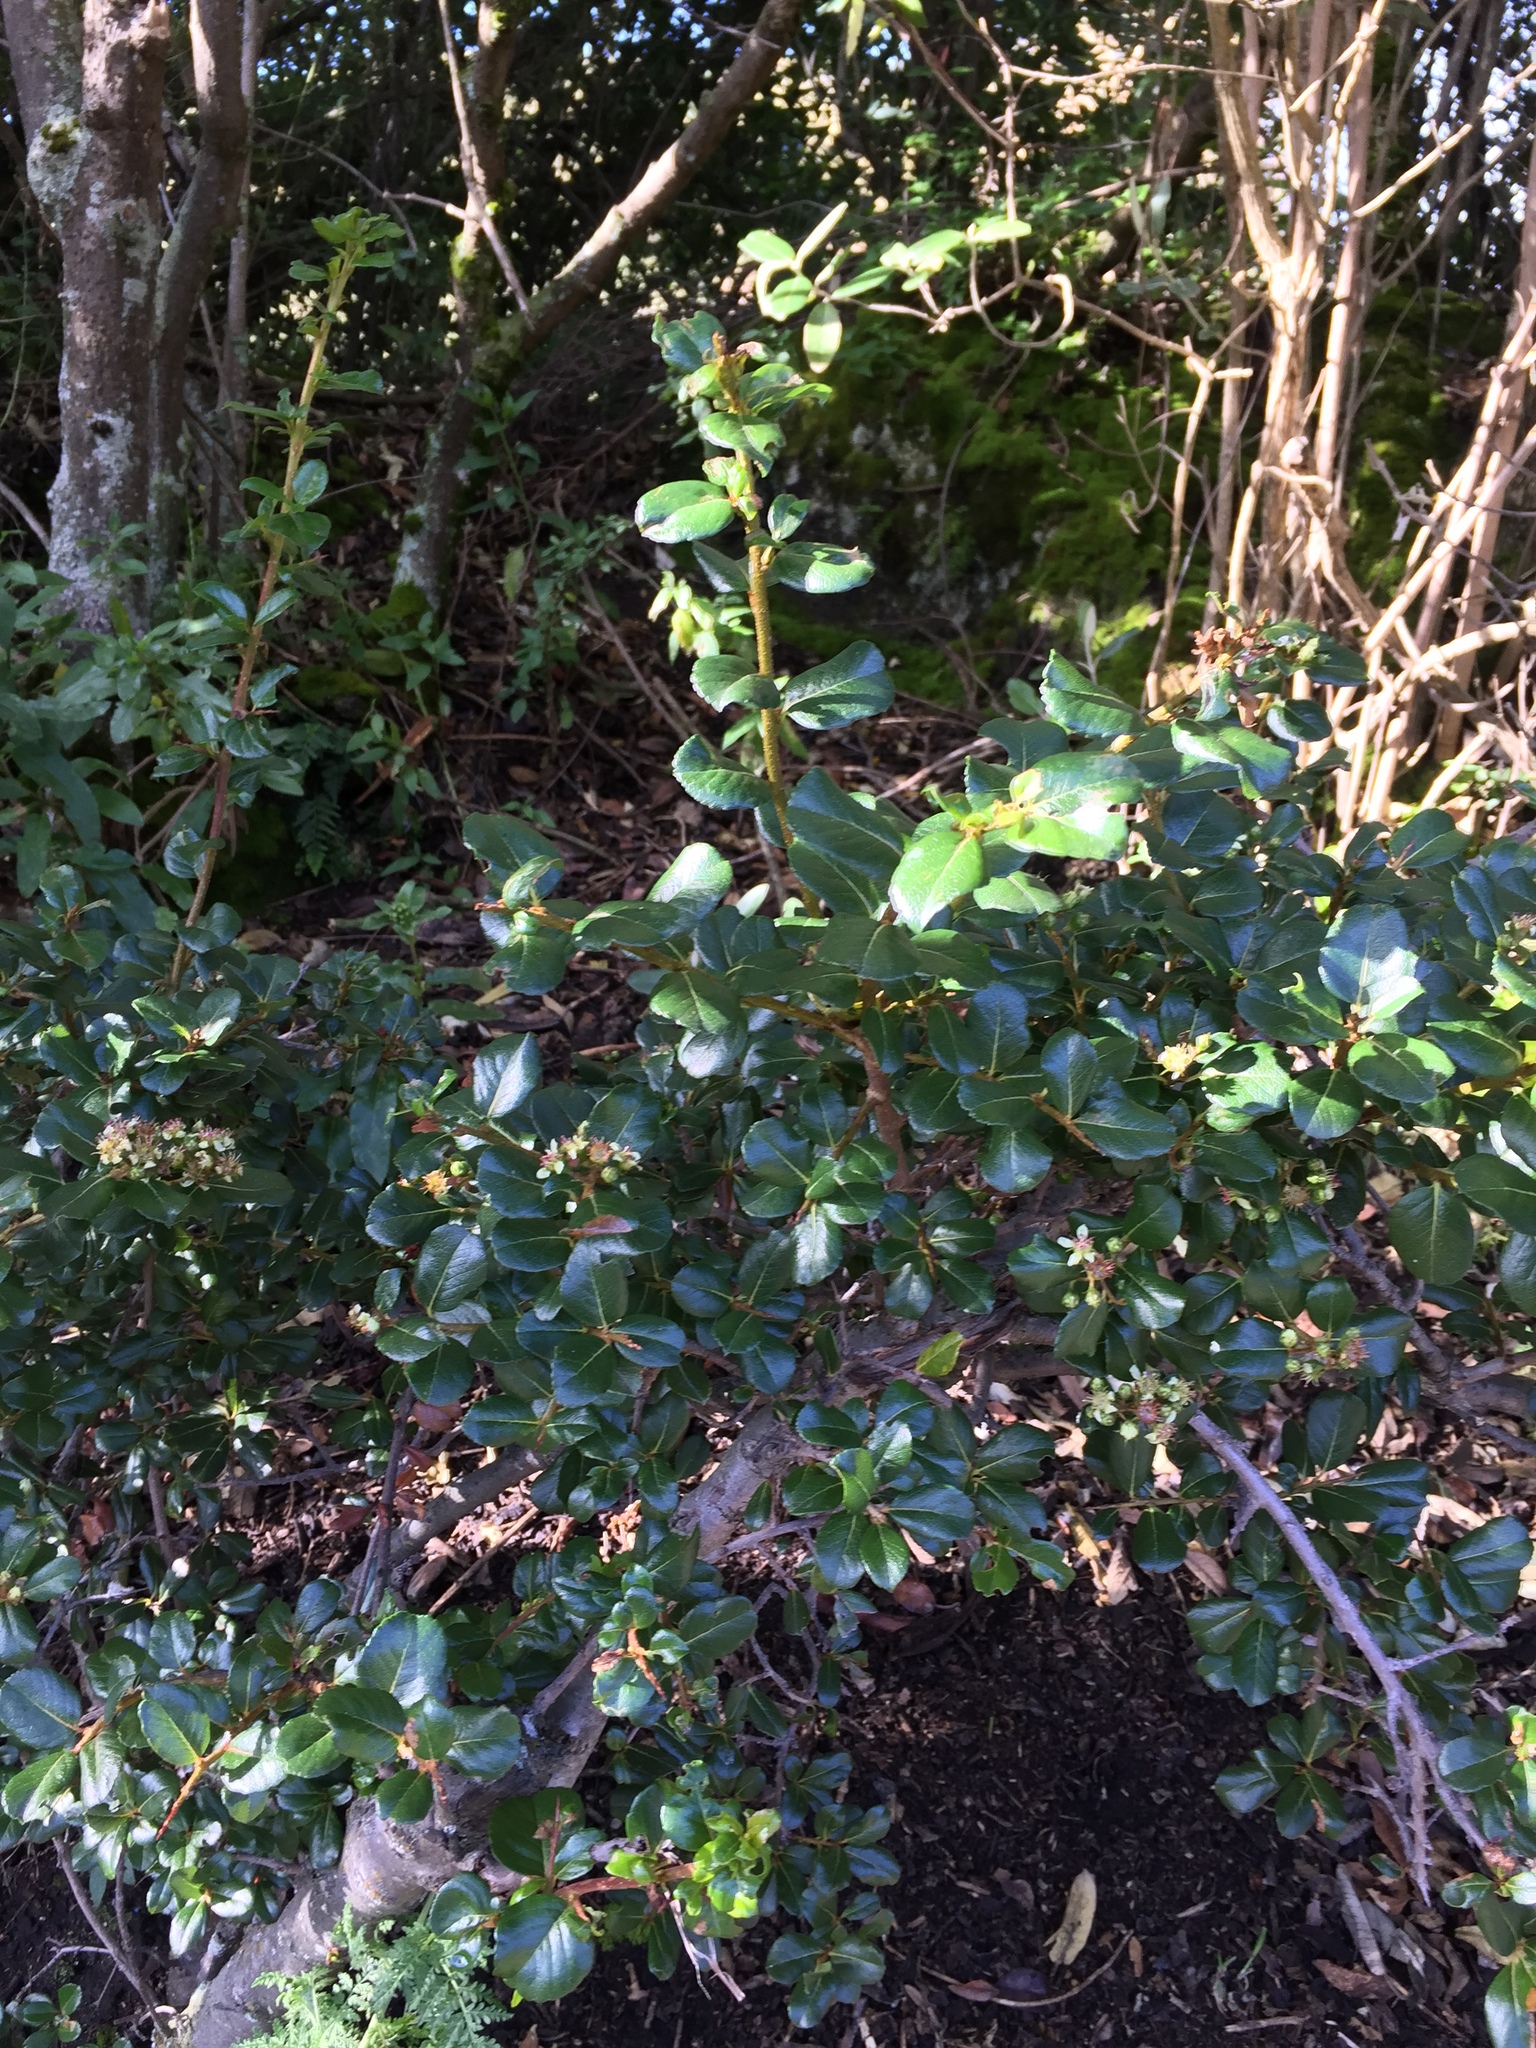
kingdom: Plantae
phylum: Tracheophyta
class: Magnoliopsida
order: Rosales
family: Rosaceae
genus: Hesperomeles
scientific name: Hesperomeles obtusifolia
